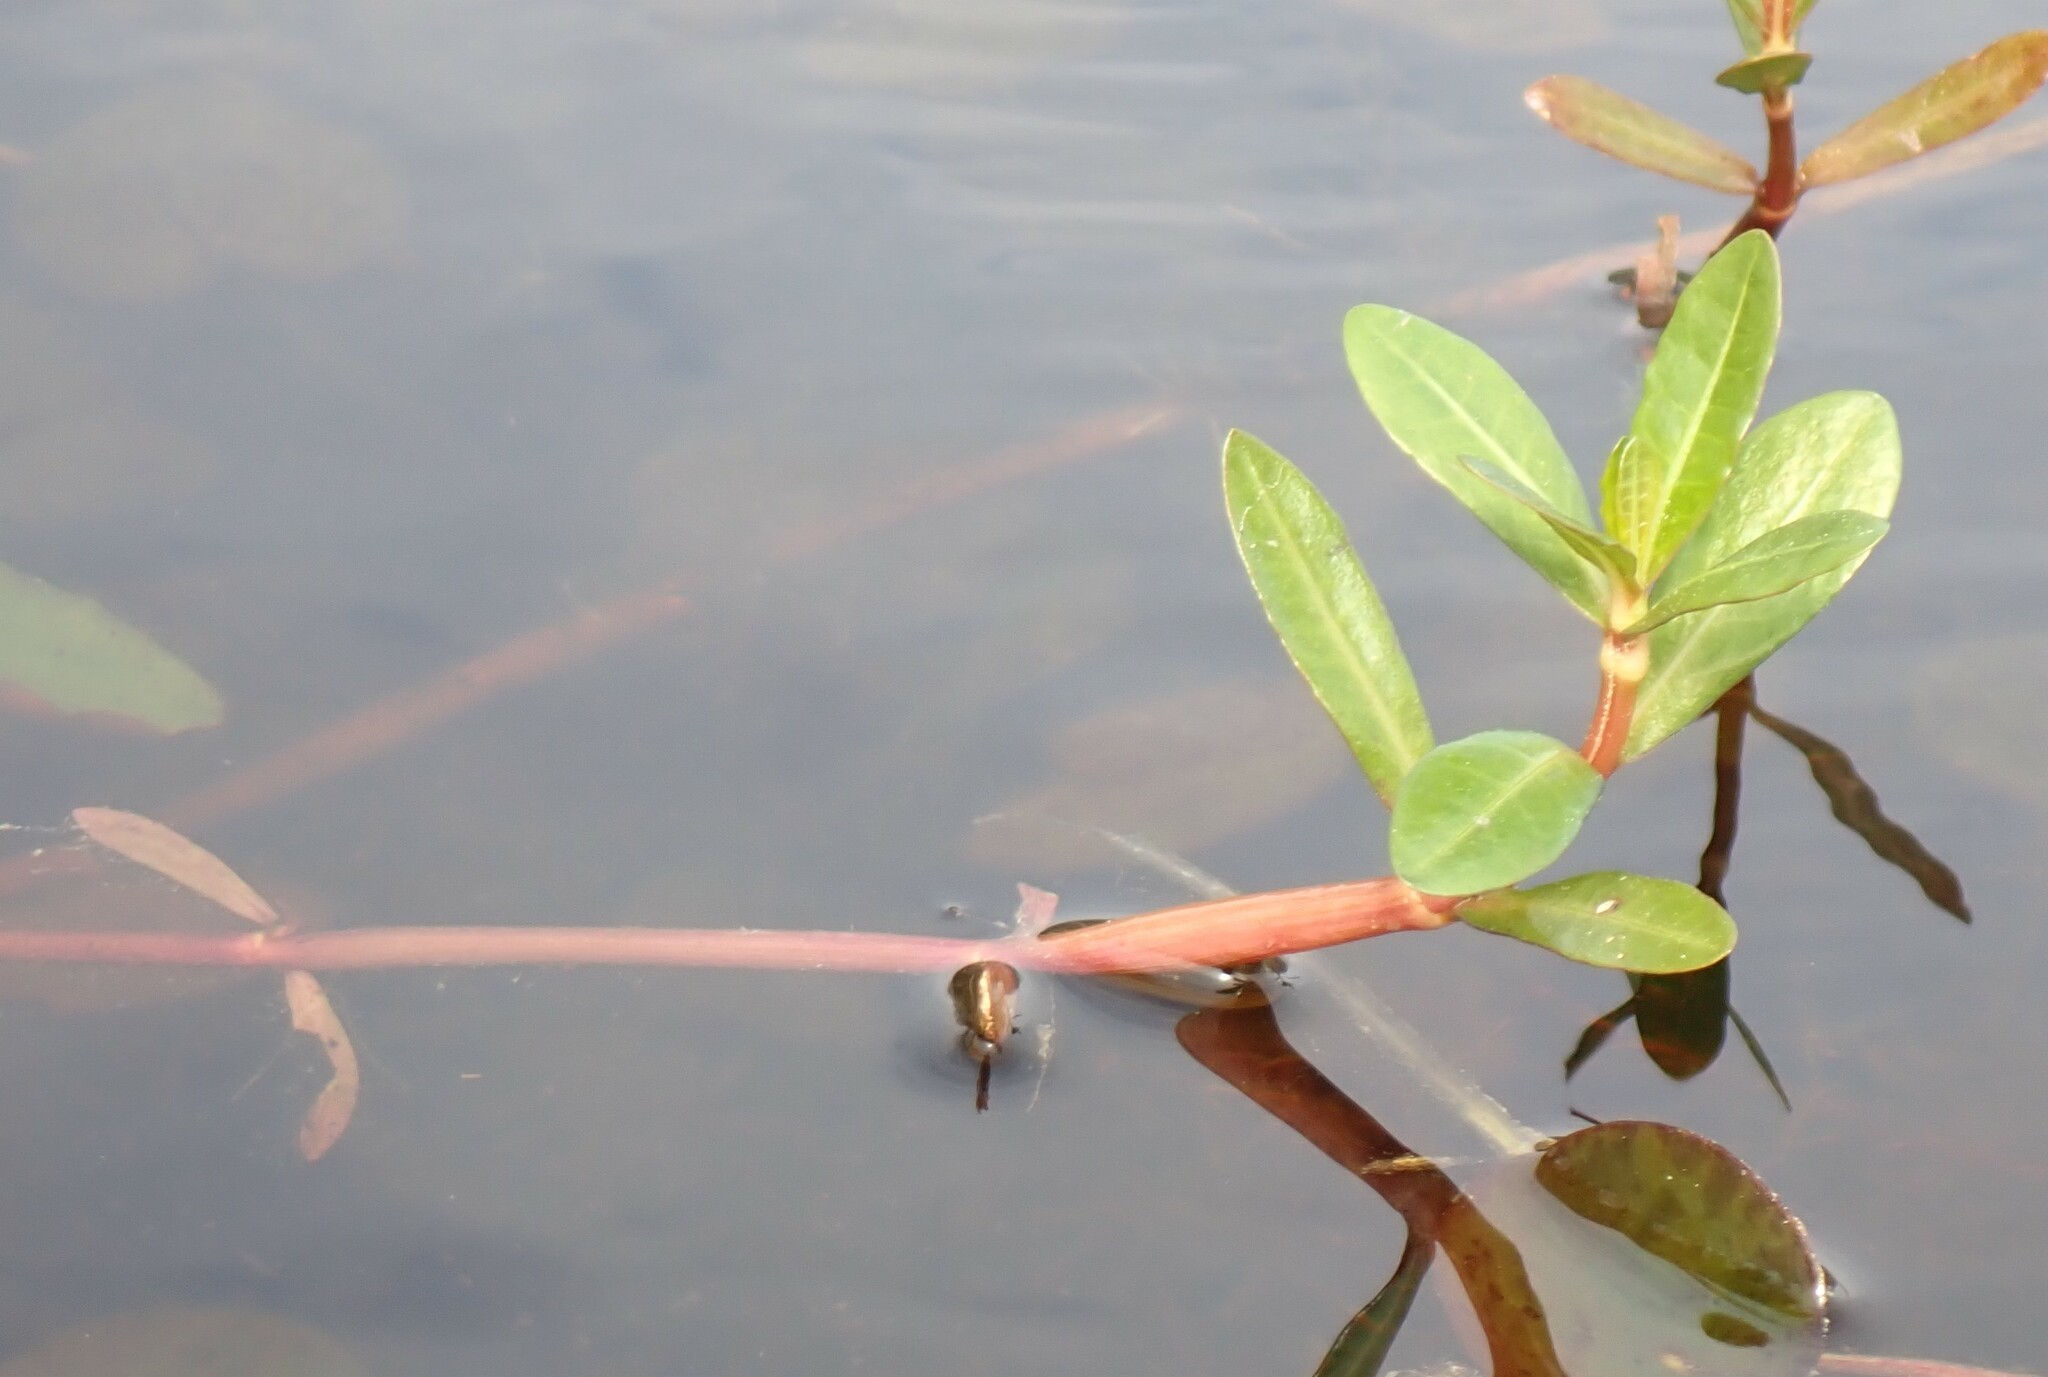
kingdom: Plantae
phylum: Tracheophyta
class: Magnoliopsida
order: Caryophyllales
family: Amaranthaceae
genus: Alternanthera
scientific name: Alternanthera philoxeroides
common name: Alligatorweed
